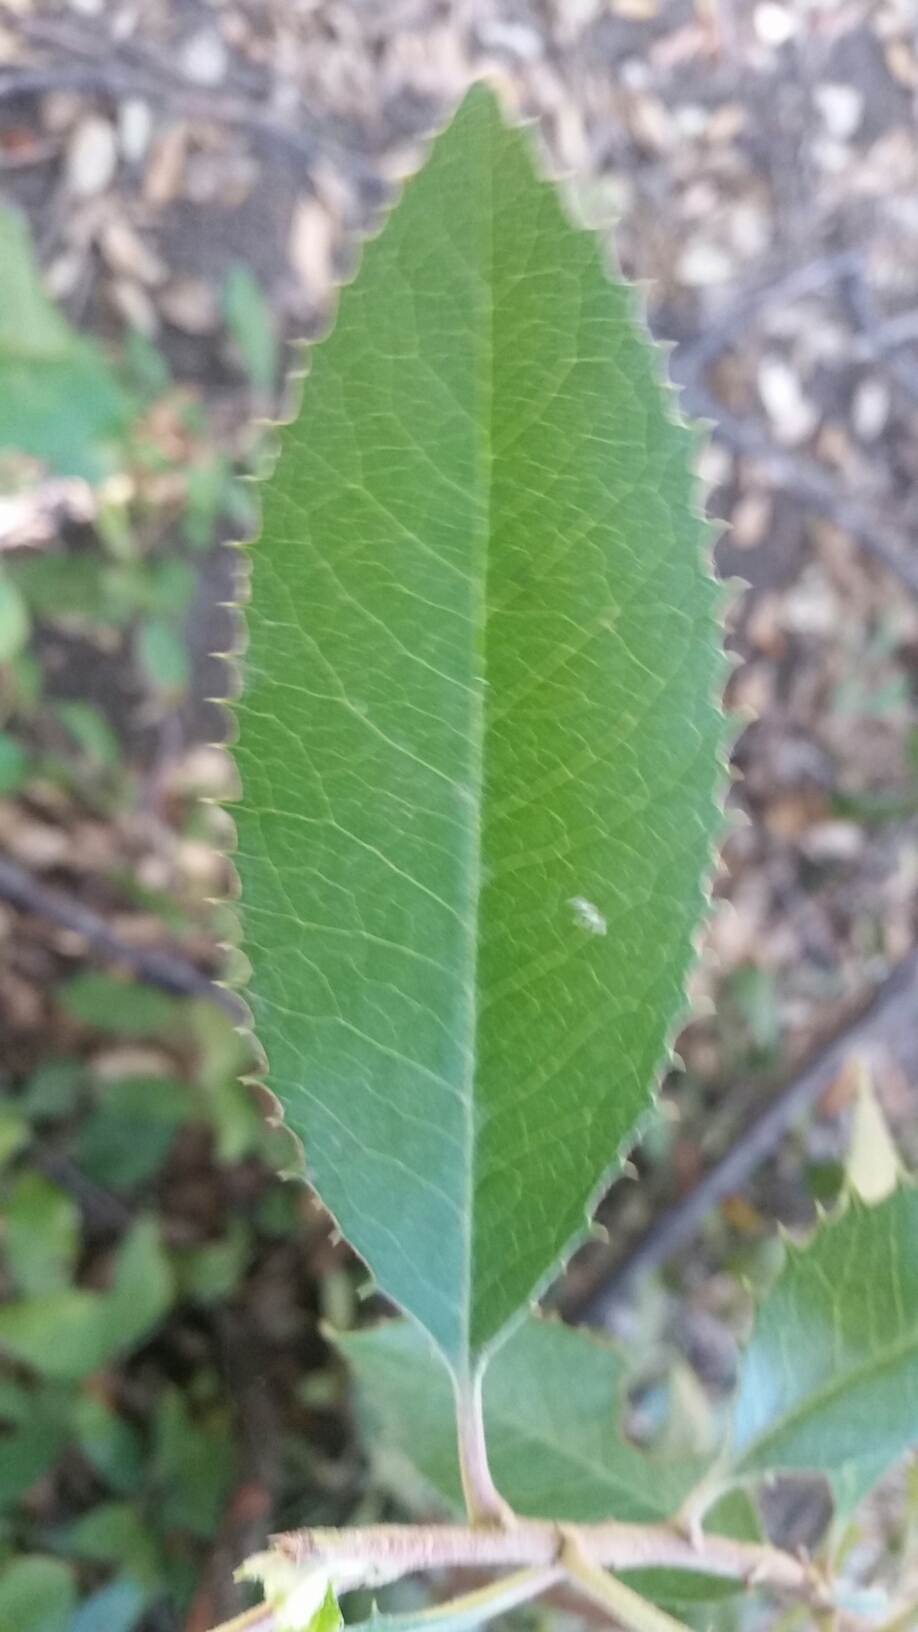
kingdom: Plantae
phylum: Tracheophyta
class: Magnoliopsida
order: Rosales
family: Rosaceae
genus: Heteromeles
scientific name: Heteromeles arbutifolia
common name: California-holly
